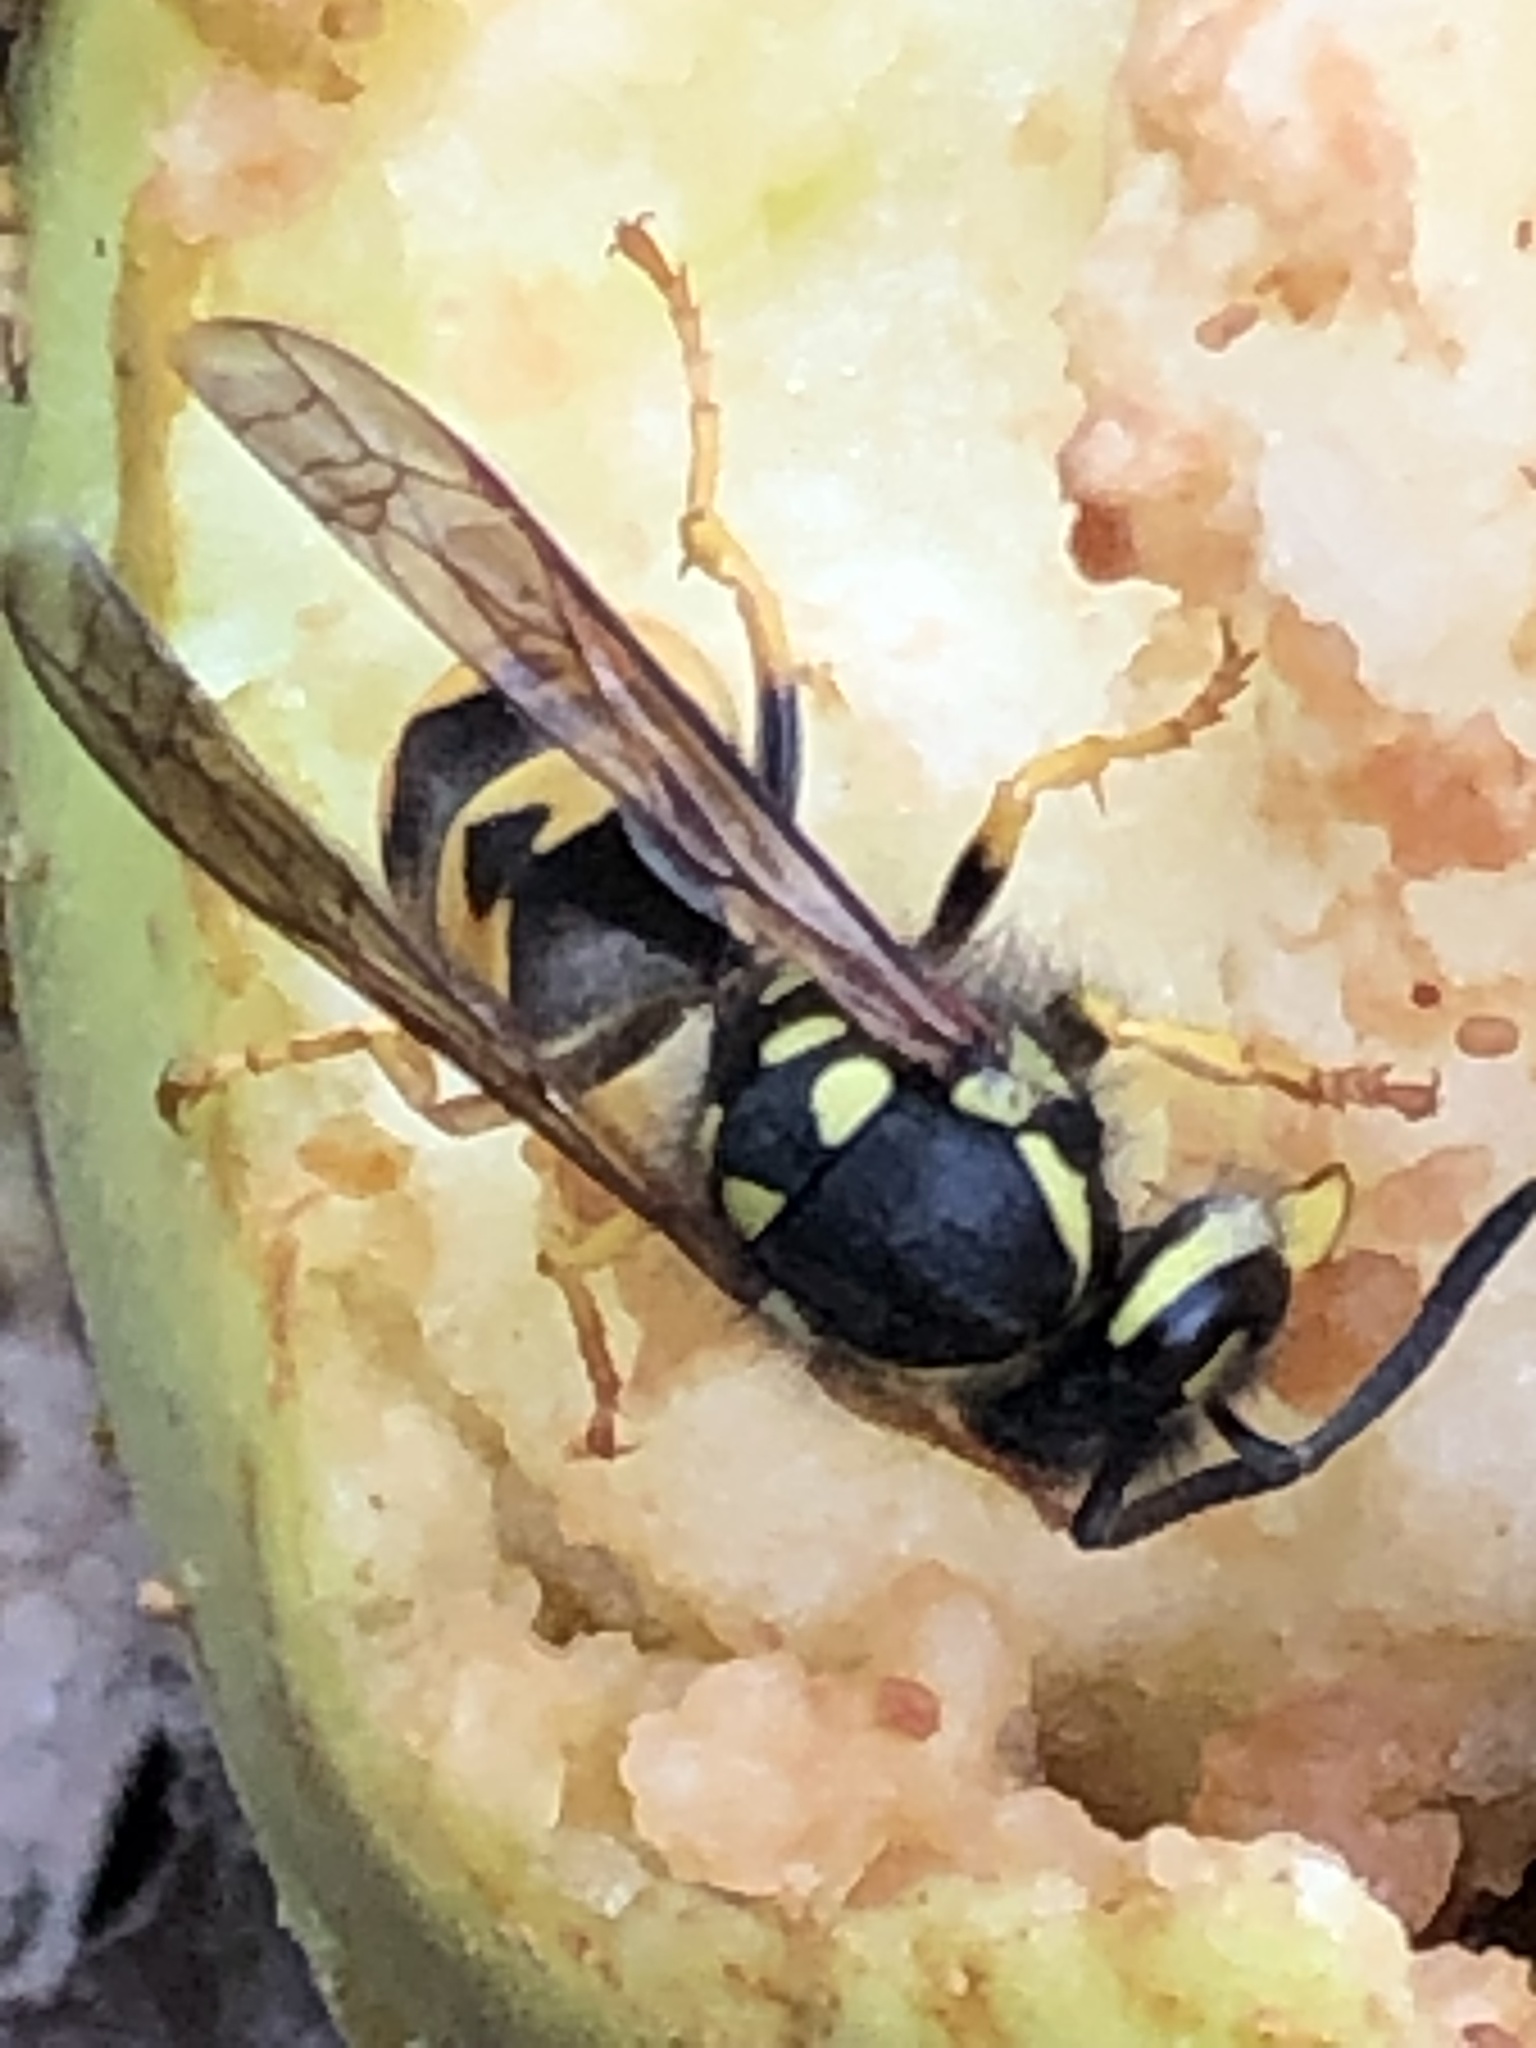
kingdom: Animalia
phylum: Arthropoda
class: Insecta
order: Hymenoptera
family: Vespidae
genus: Vespula
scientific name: Vespula germanica
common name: German wasp
